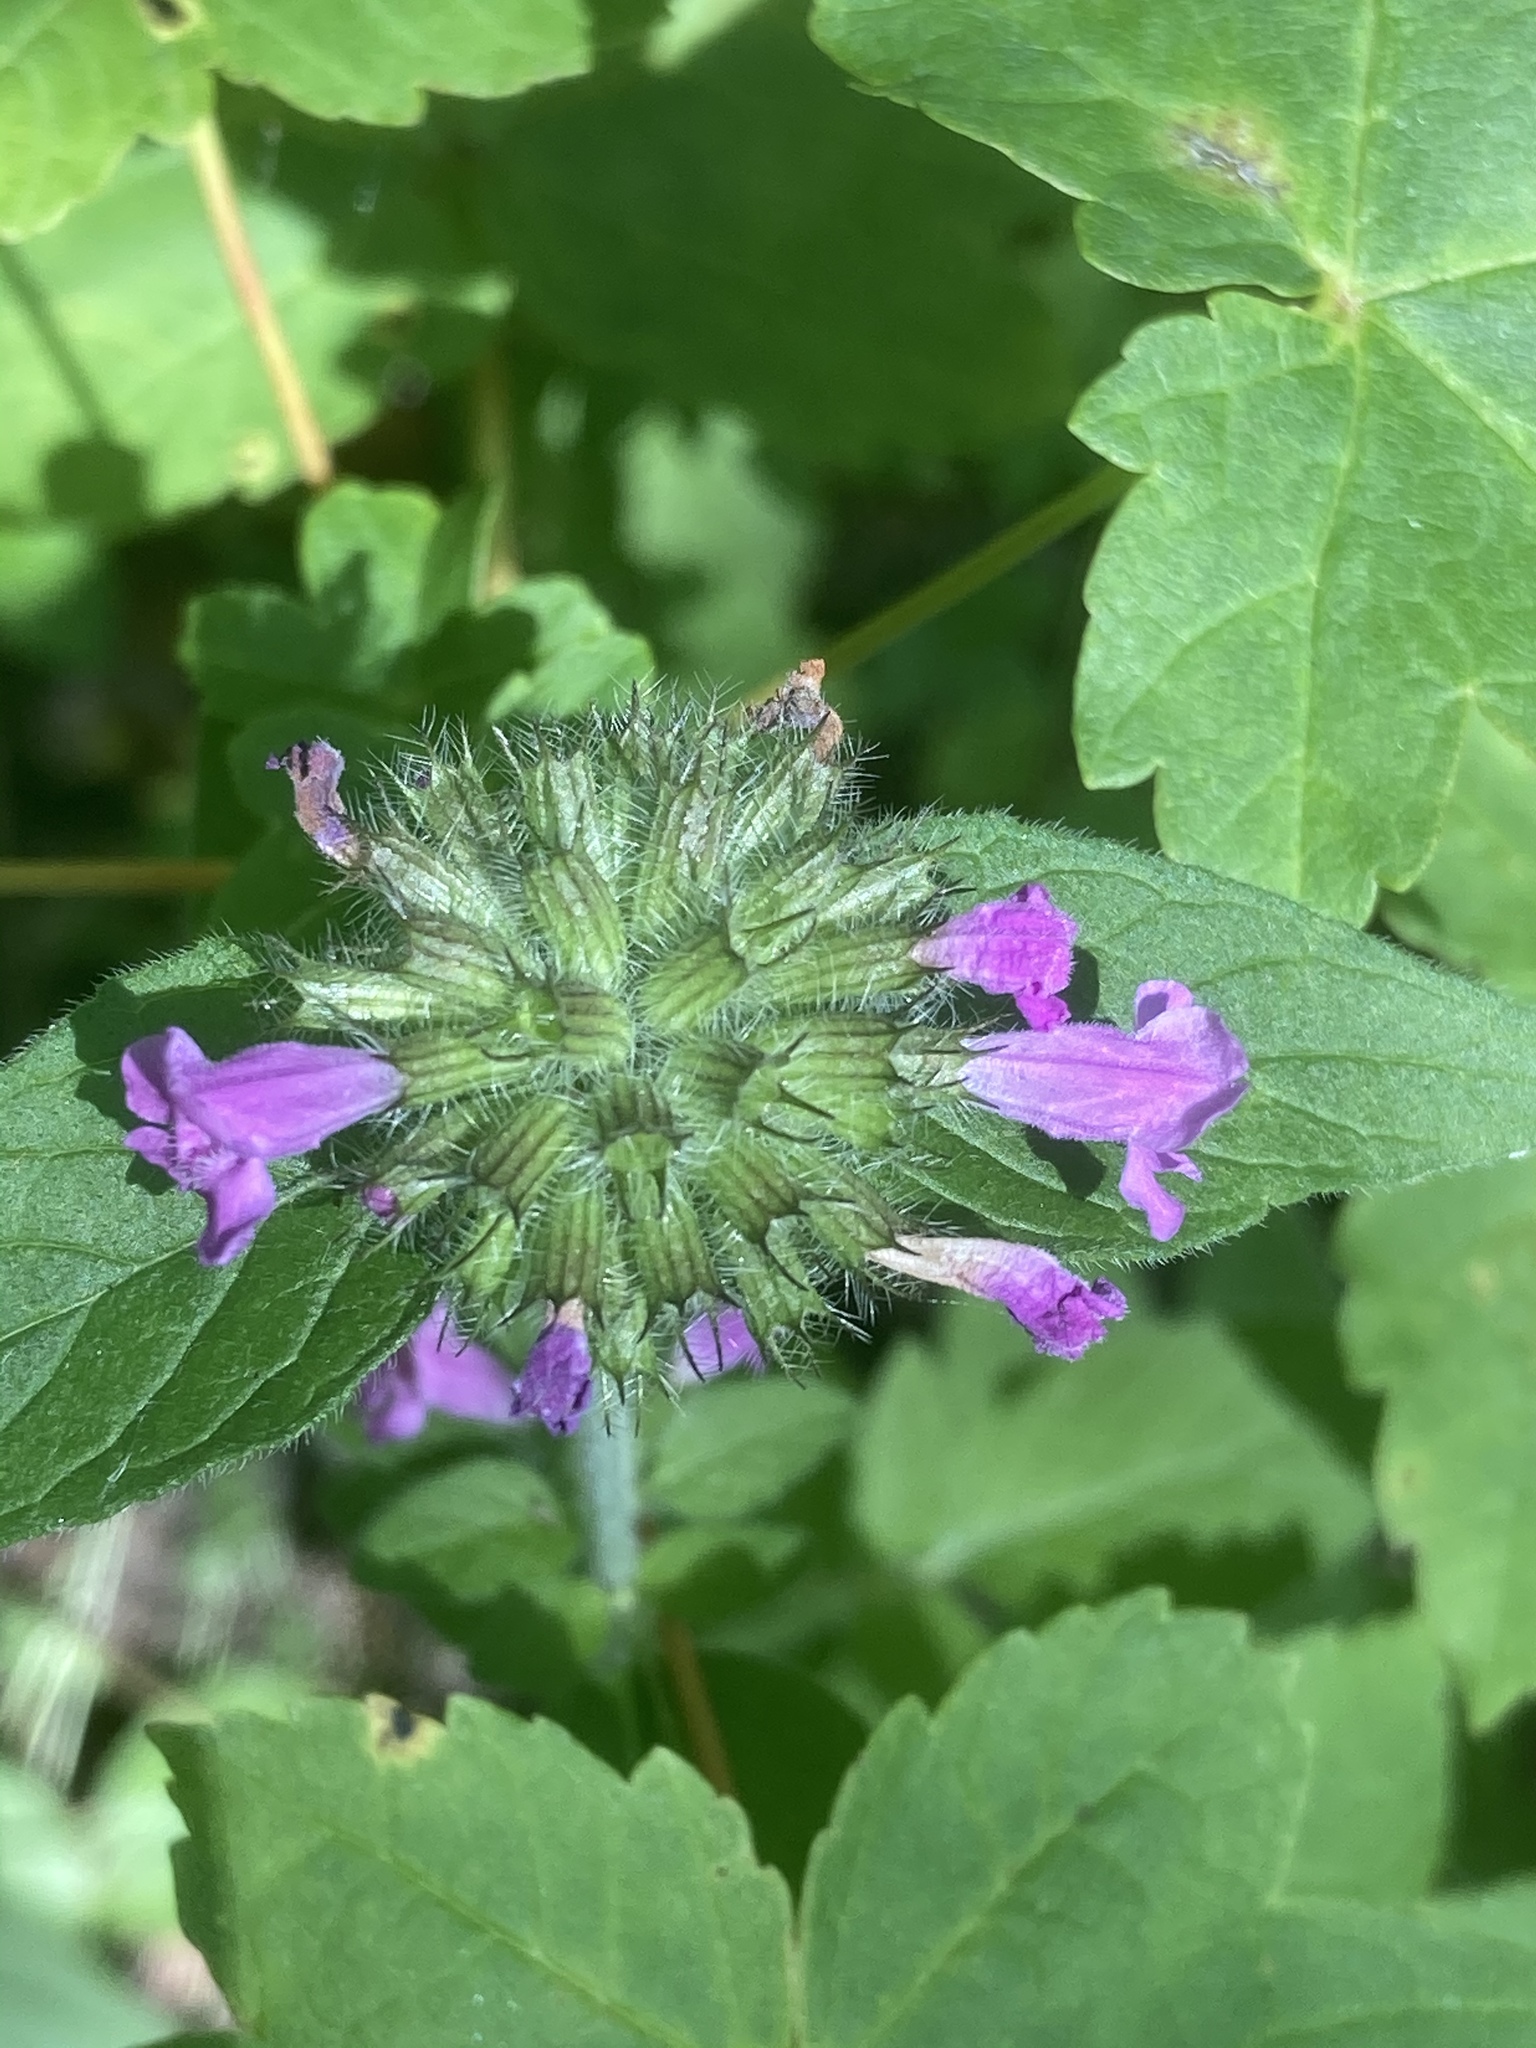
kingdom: Plantae
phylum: Tracheophyta
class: Magnoliopsida
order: Lamiales
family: Lamiaceae
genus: Clinopodium
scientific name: Clinopodium vulgare
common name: Wild basil
